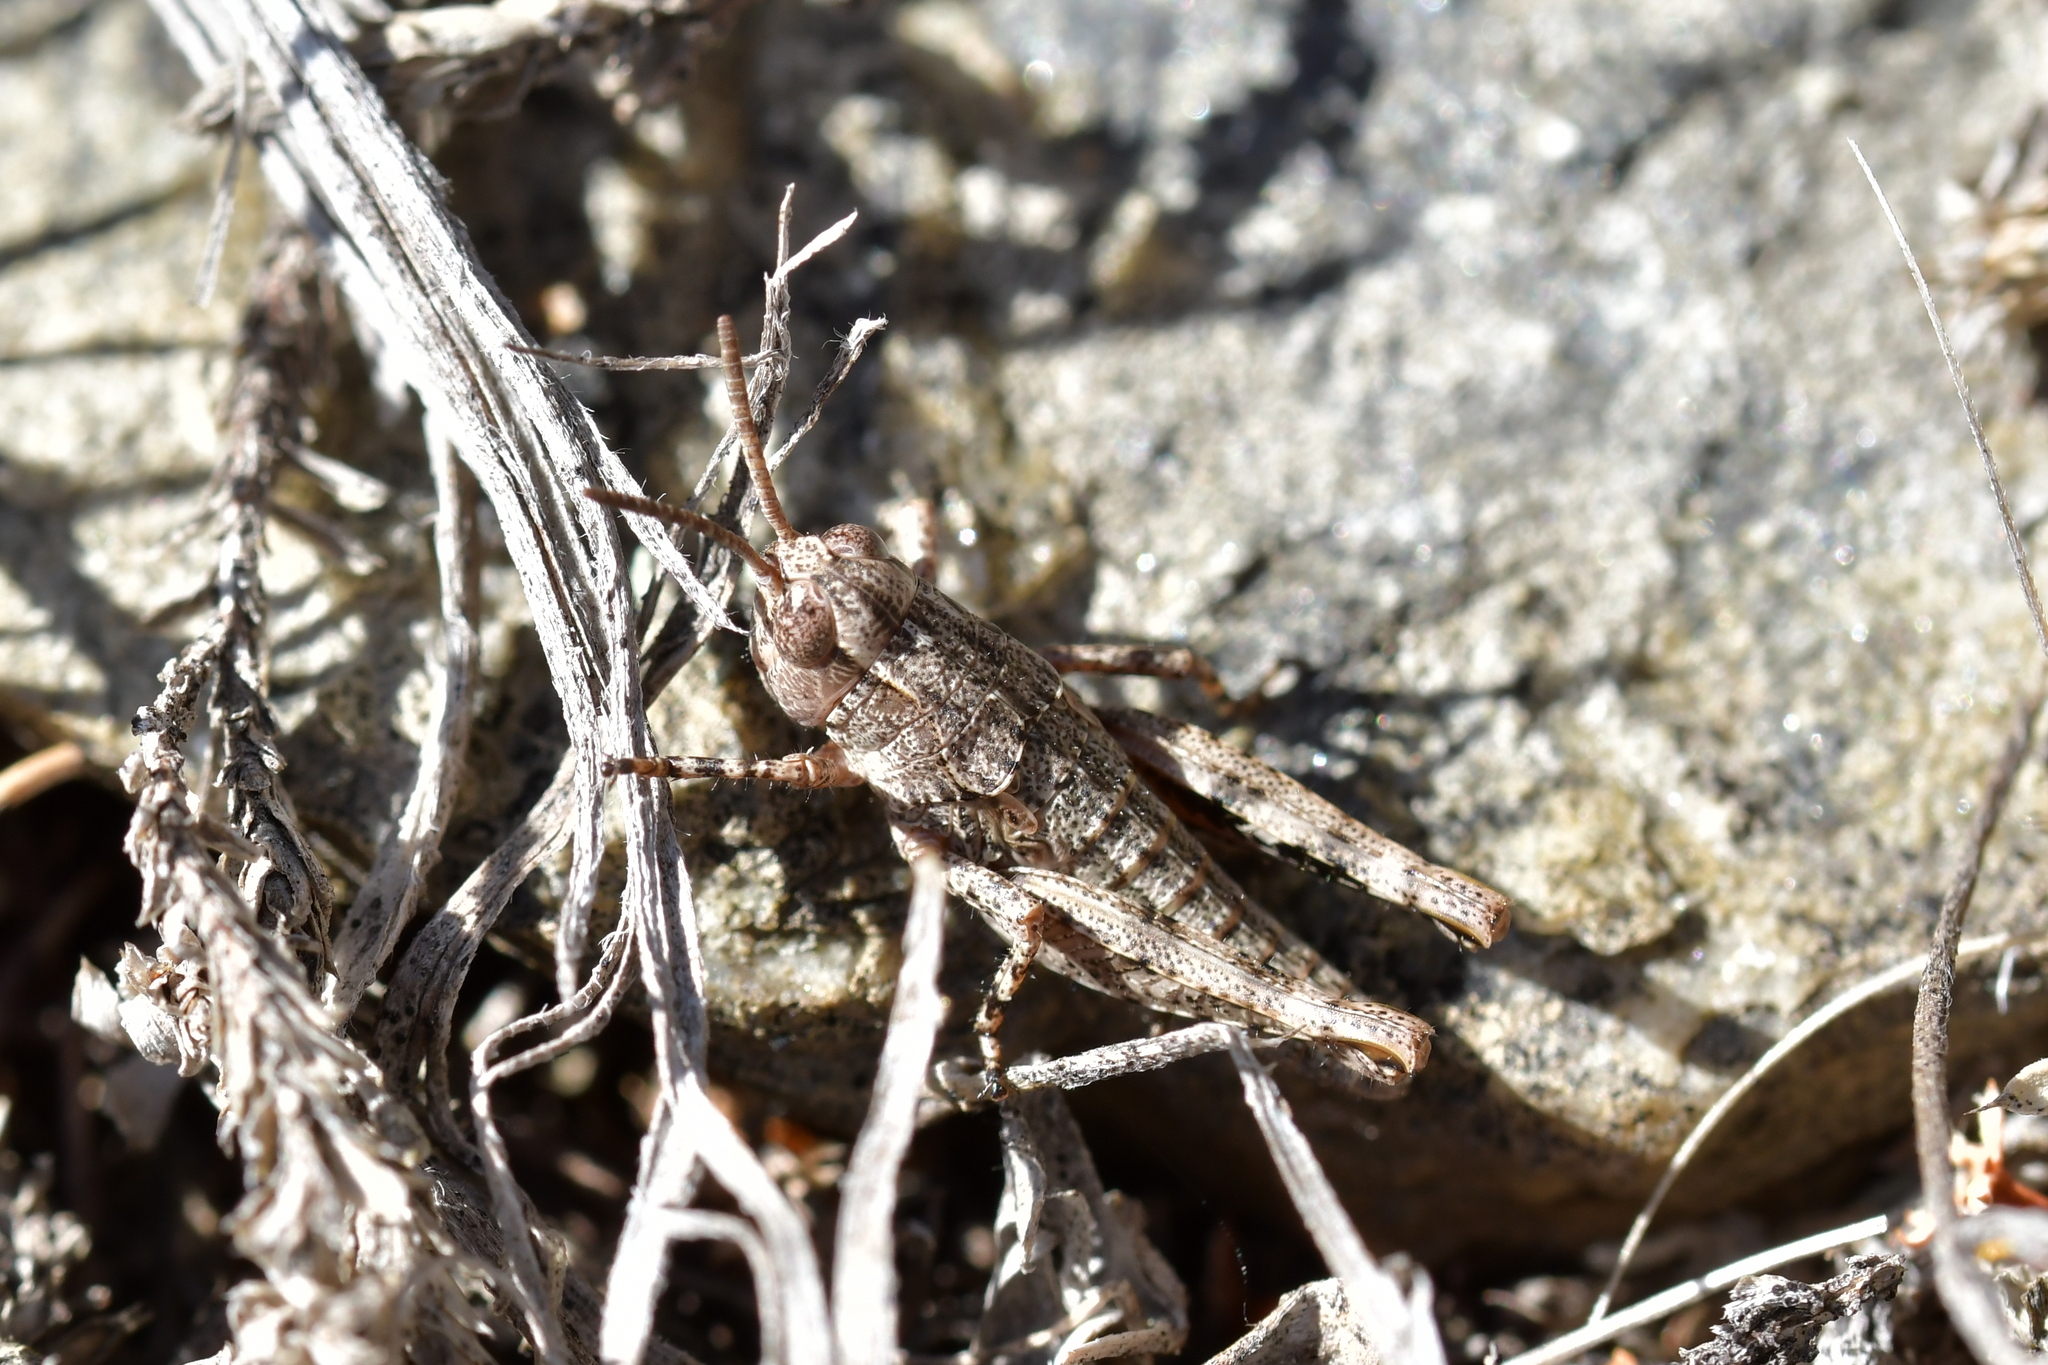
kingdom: Animalia
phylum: Arthropoda
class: Insecta
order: Orthoptera
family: Acrididae
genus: Sigaus
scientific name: Sigaus australis
